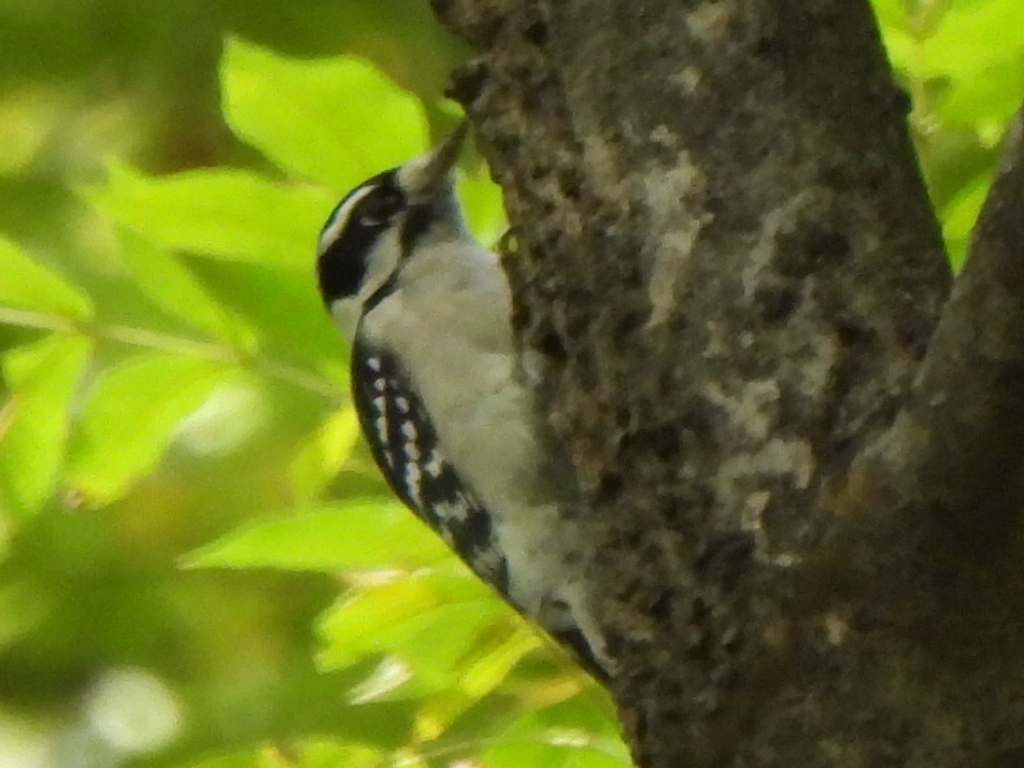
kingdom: Animalia
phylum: Chordata
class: Aves
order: Piciformes
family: Picidae
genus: Dryobates
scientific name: Dryobates pubescens
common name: Downy woodpecker
